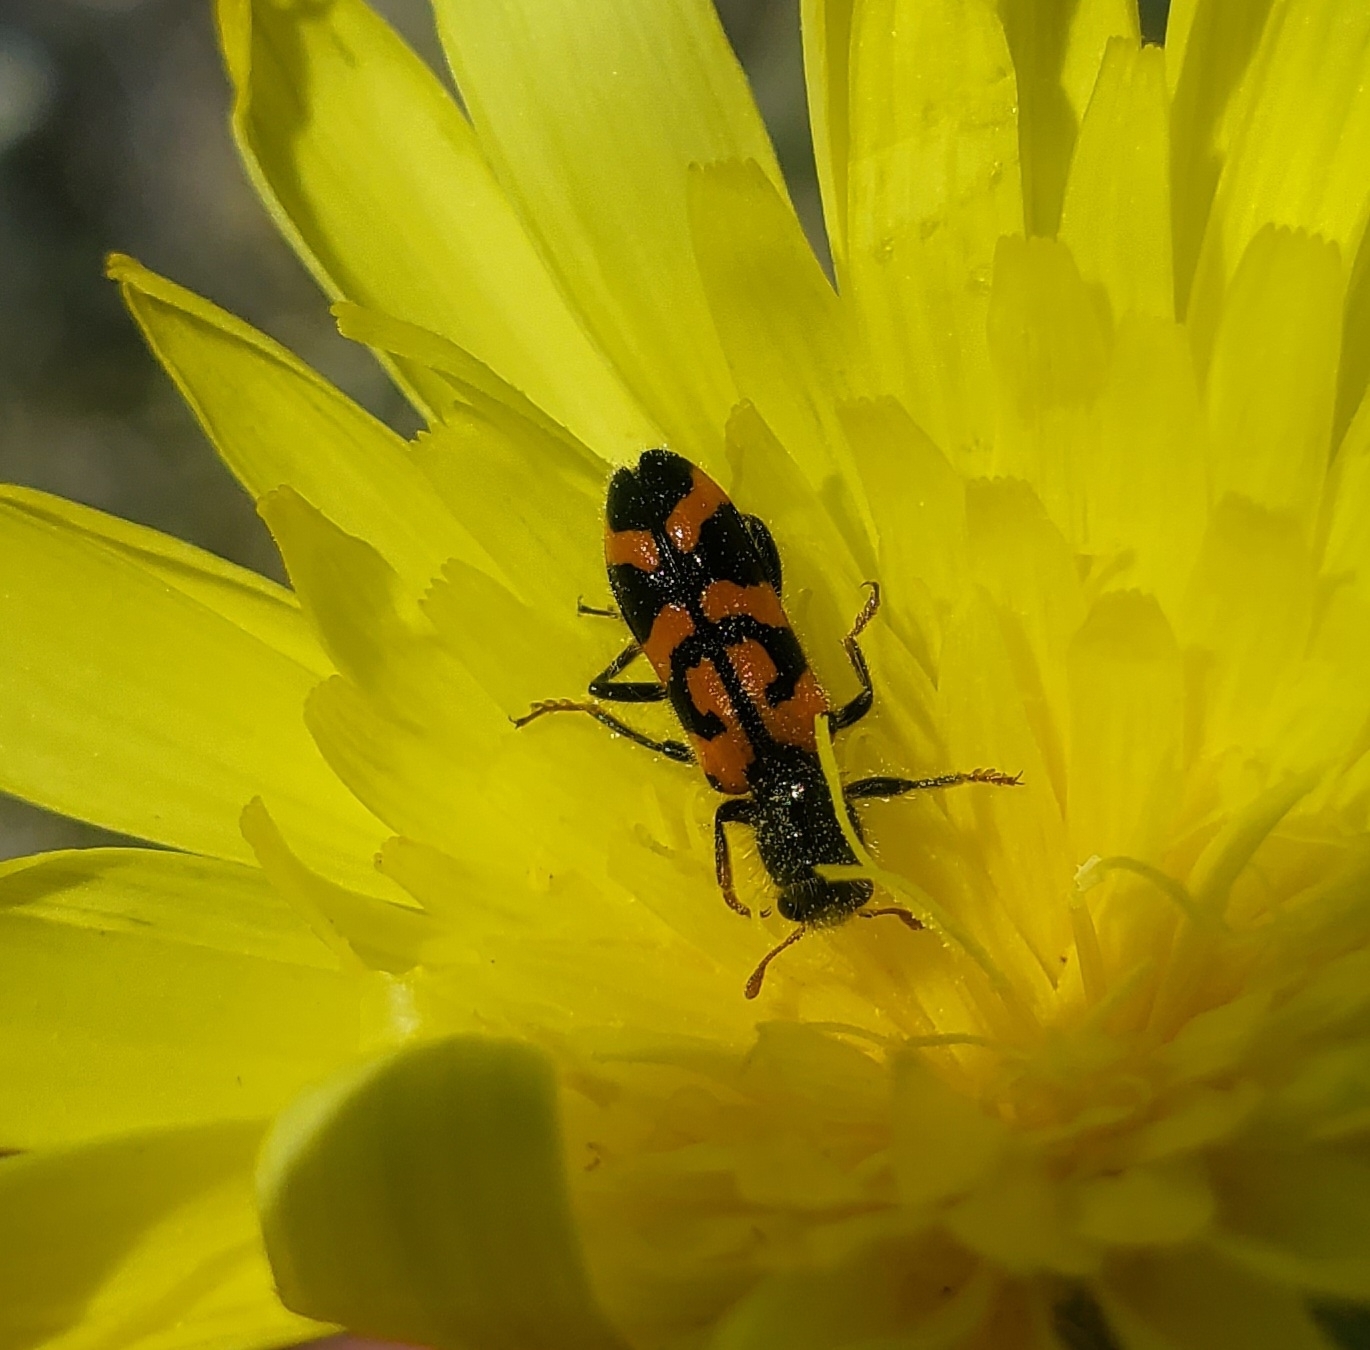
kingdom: Animalia
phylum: Arthropoda
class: Insecta
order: Coleoptera
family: Cleridae
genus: Trichodes
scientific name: Trichodes ornatus
